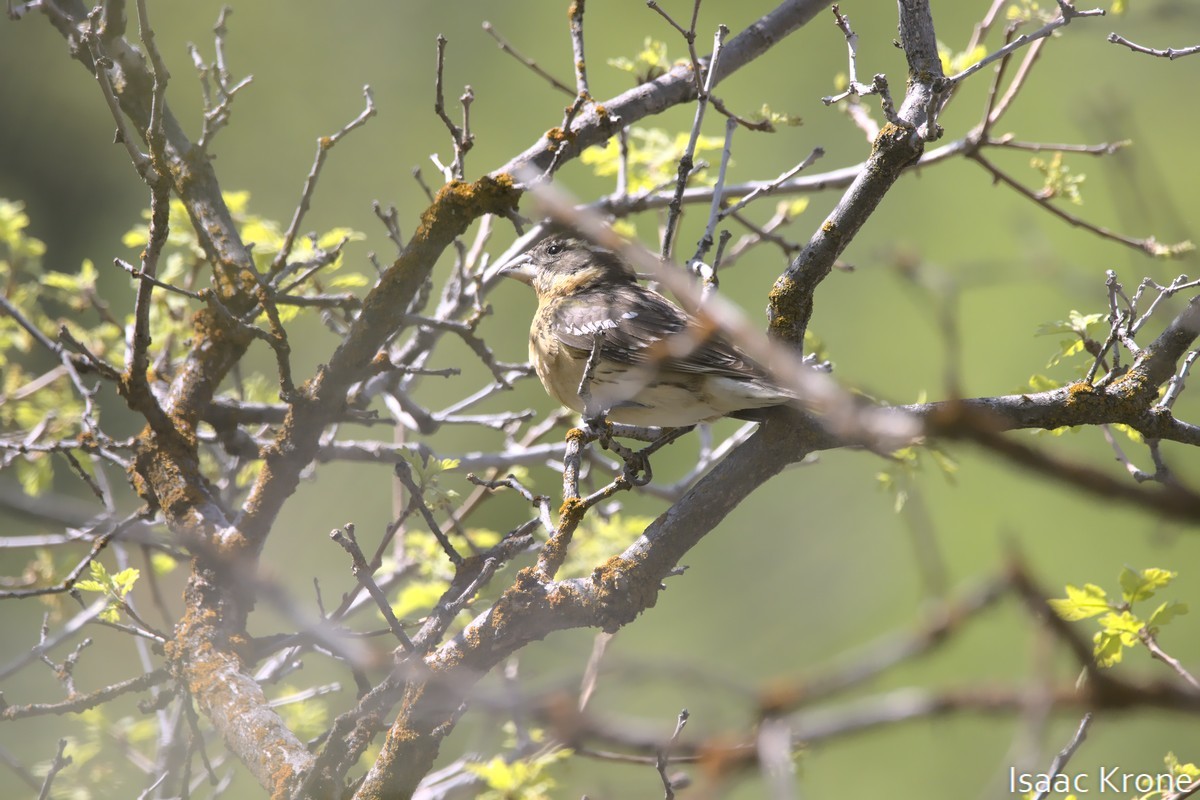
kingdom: Animalia
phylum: Chordata
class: Aves
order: Passeriformes
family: Cardinalidae
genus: Pheucticus
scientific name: Pheucticus melanocephalus
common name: Black-headed grosbeak
